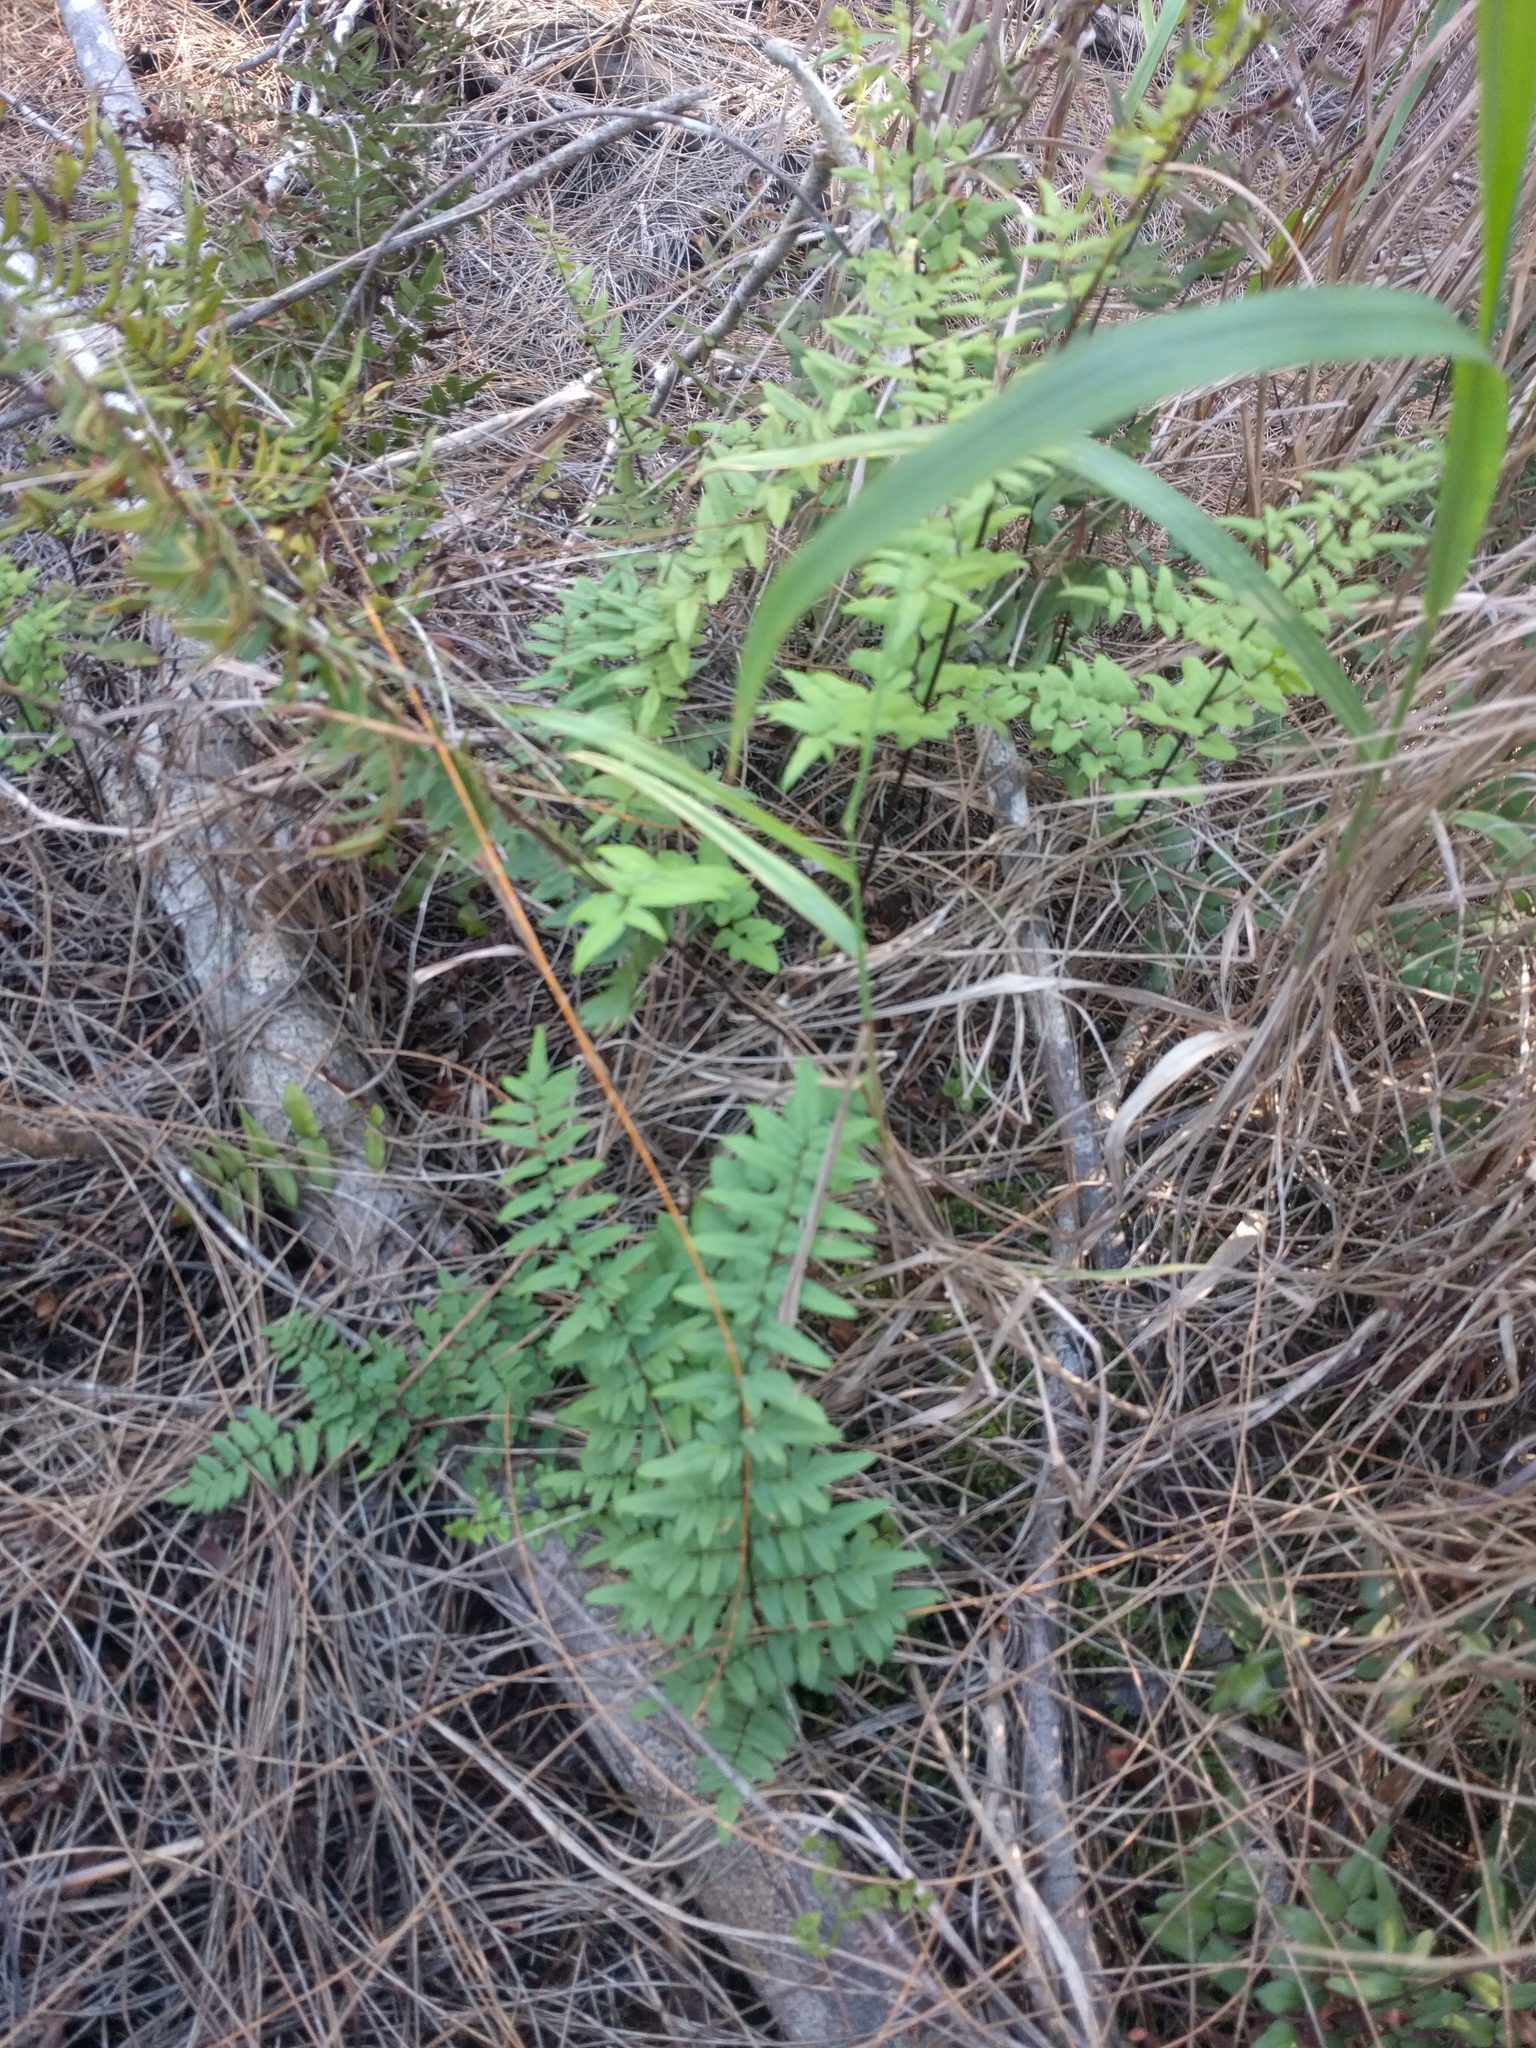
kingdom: Plantae
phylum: Tracheophyta
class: Polypodiopsida
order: Polypodiales
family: Pteridaceae
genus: Cheilanthes
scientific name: Cheilanthes viridis
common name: Green cliffbrake
